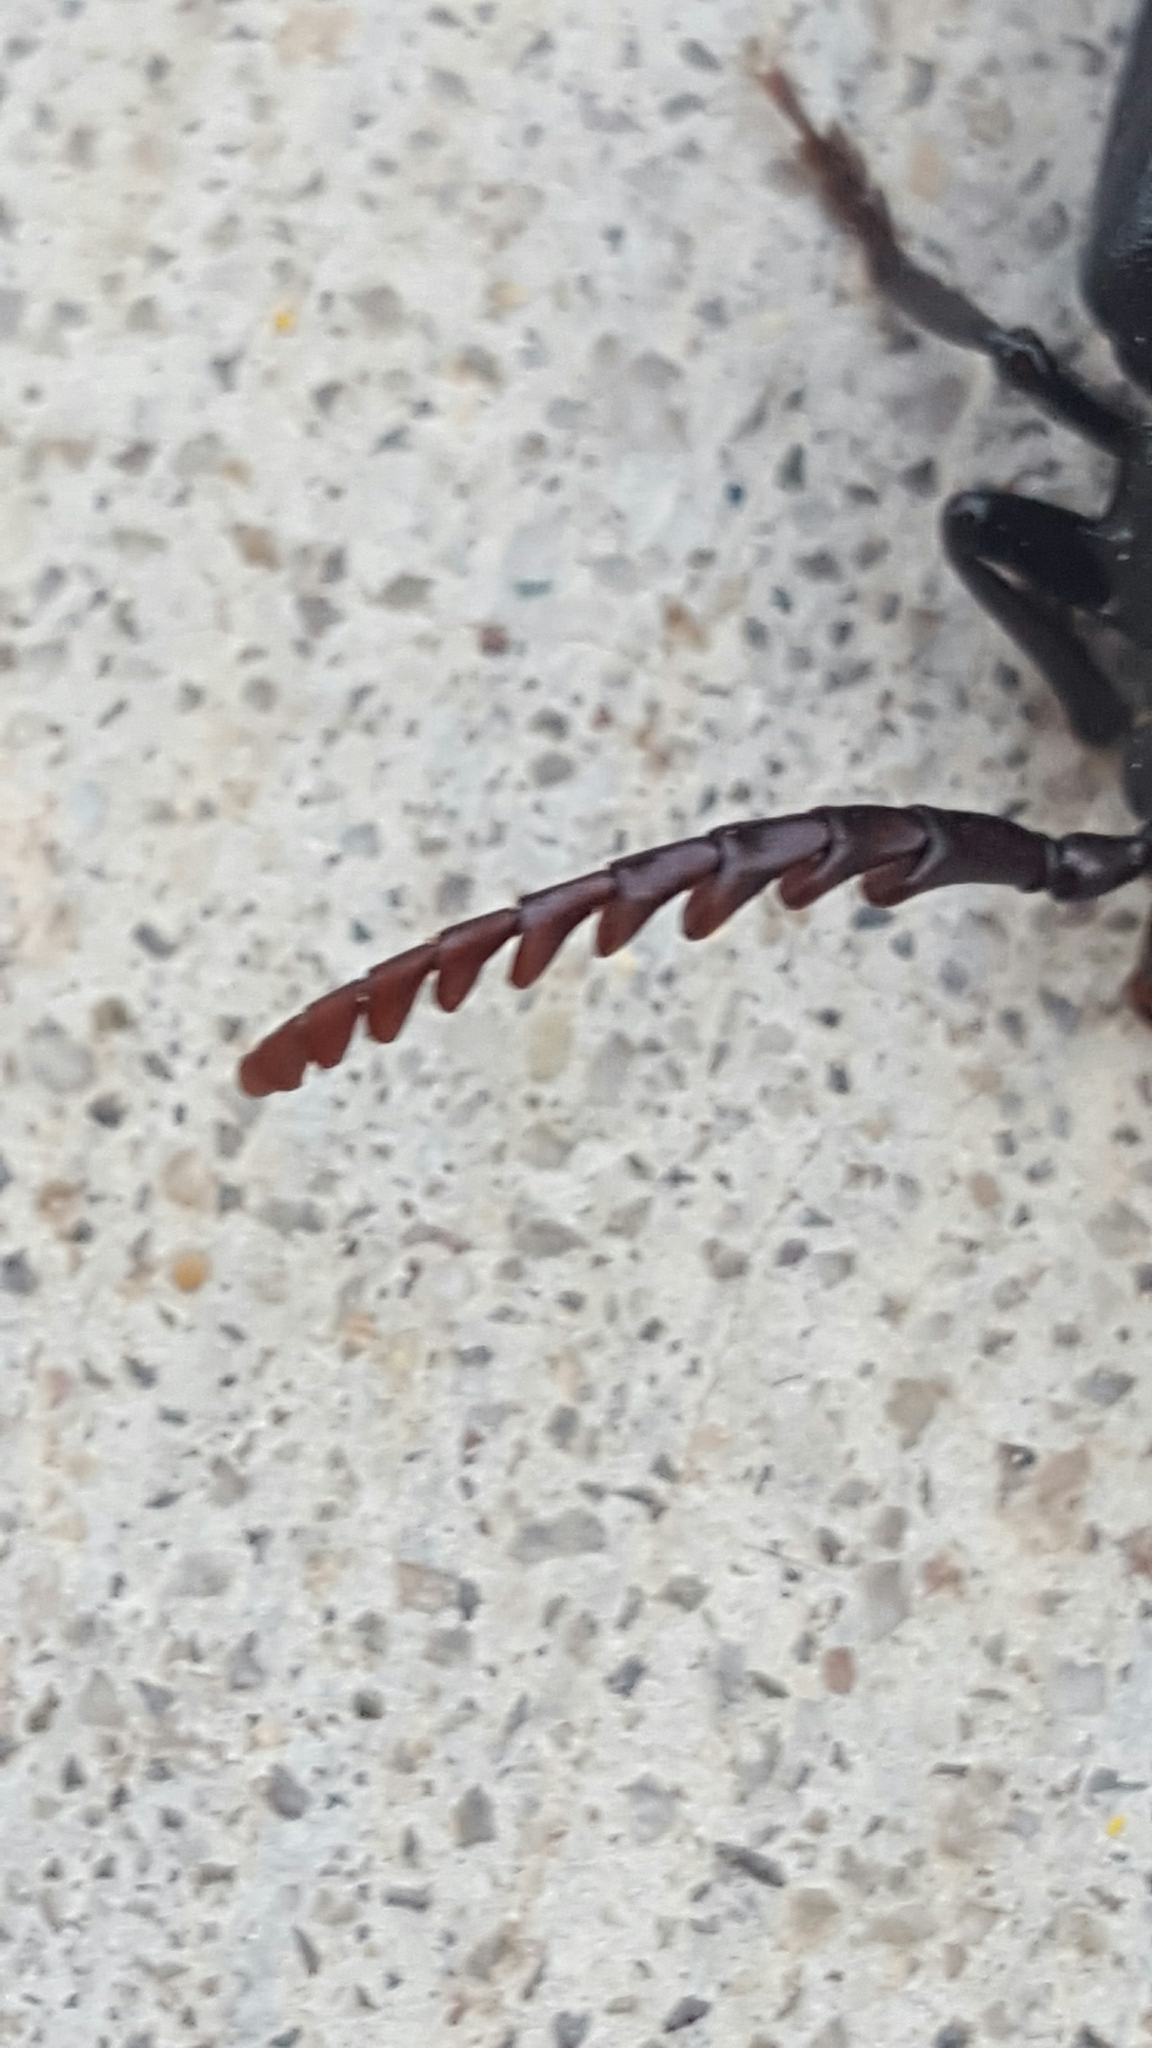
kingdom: Animalia
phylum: Arthropoda
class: Insecta
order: Coleoptera
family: Cerambycidae
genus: Prionus
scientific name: Prionus integer
